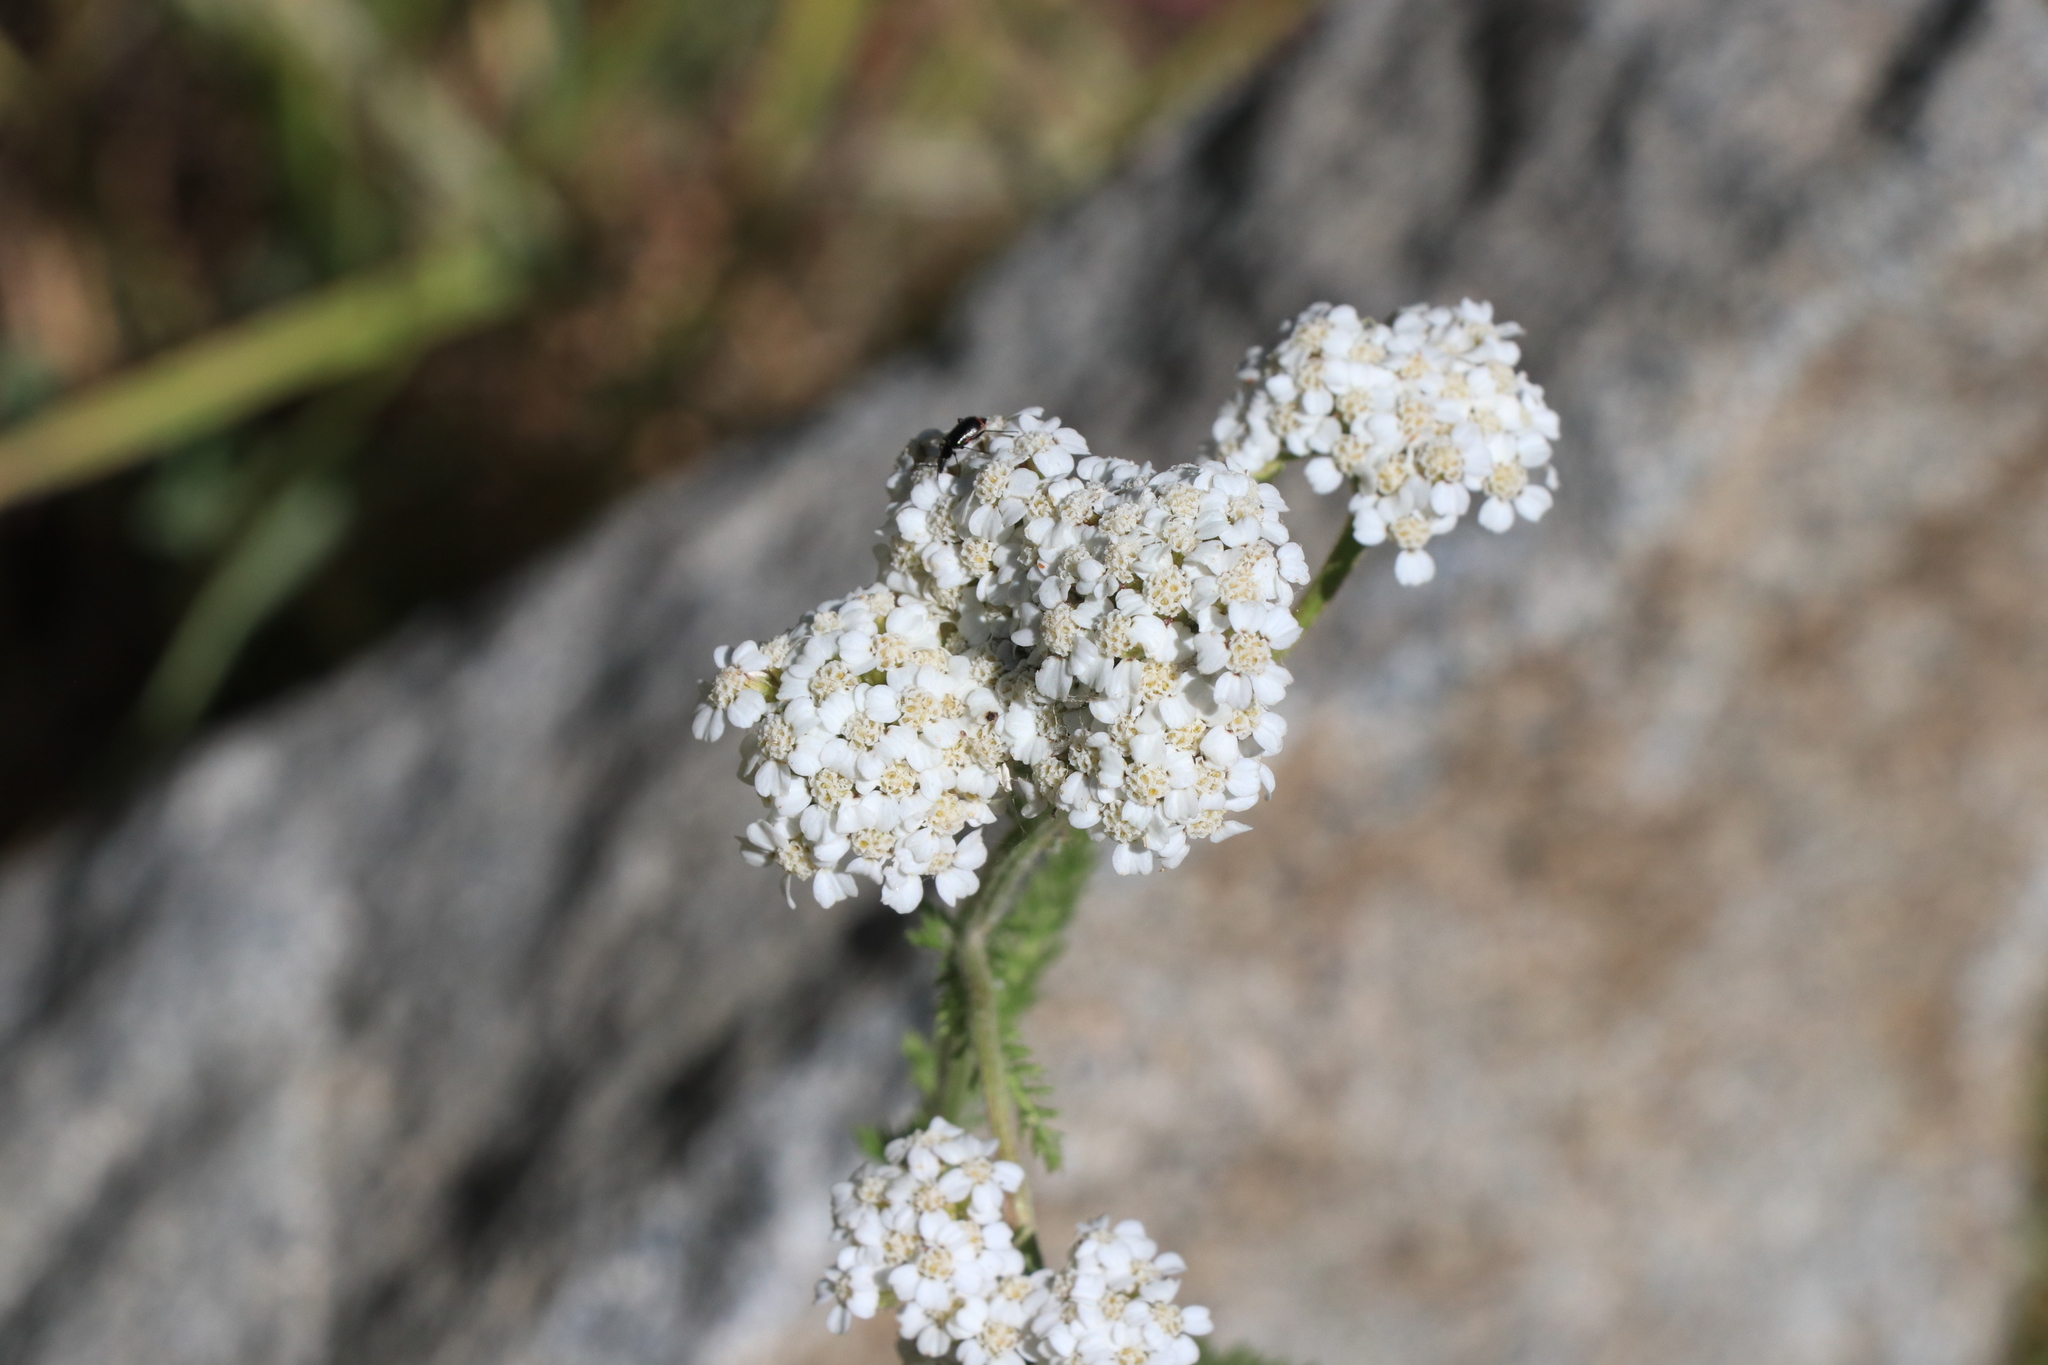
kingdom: Plantae
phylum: Tracheophyta
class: Magnoliopsida
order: Asterales
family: Asteraceae
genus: Achillea
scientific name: Achillea millefolium
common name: Yarrow
